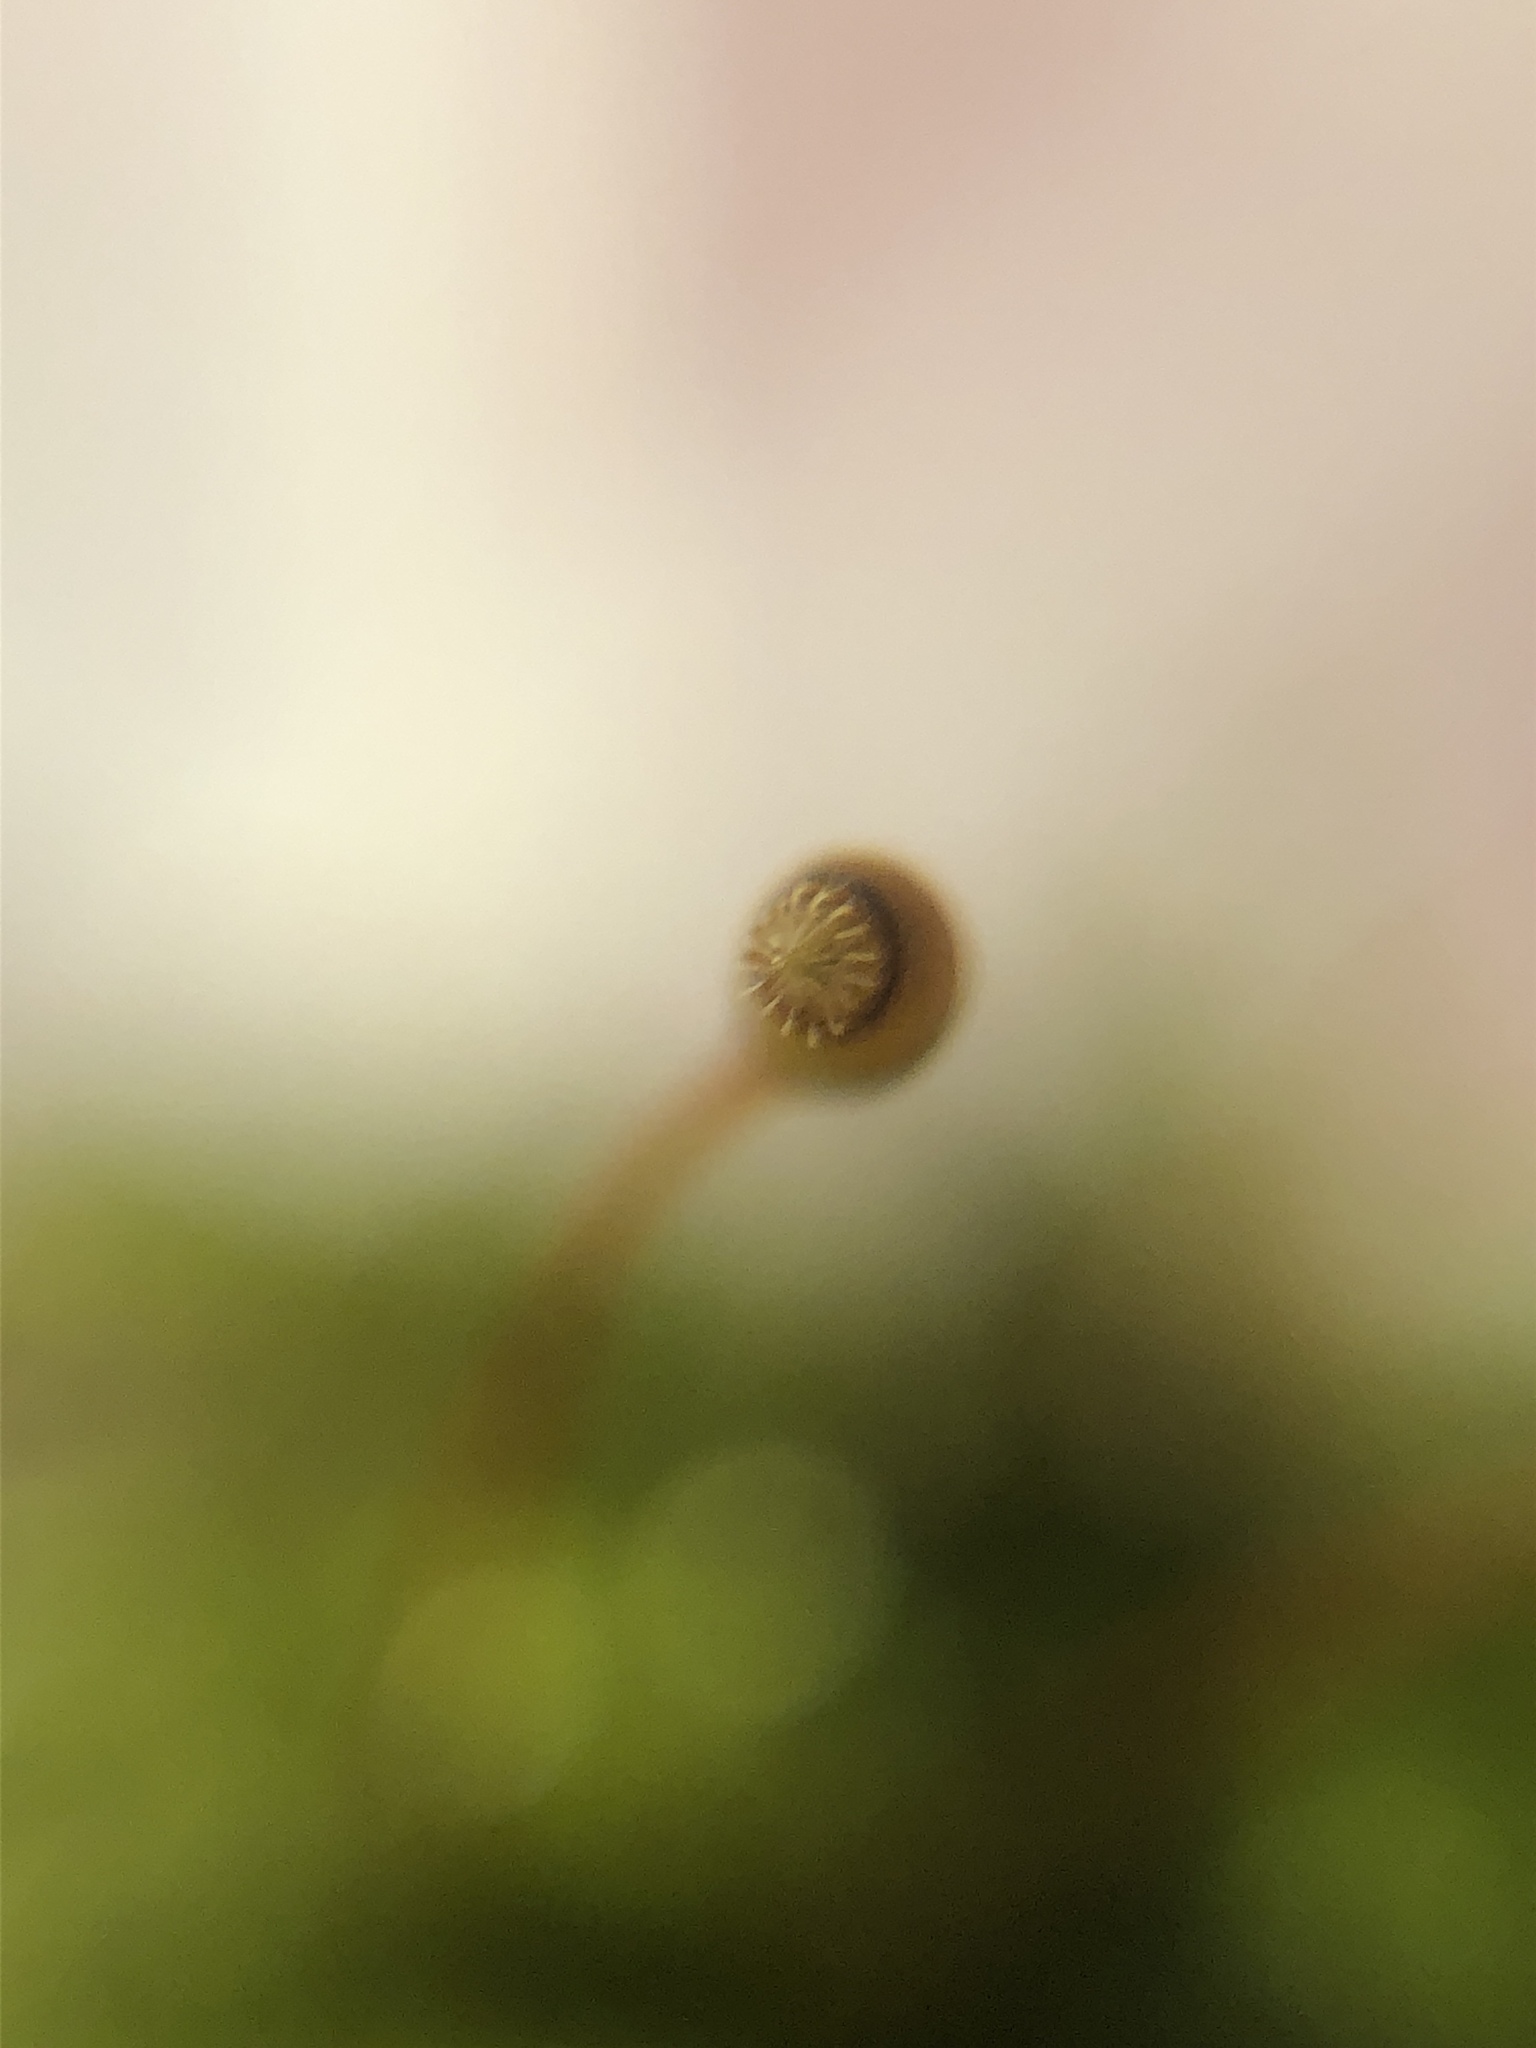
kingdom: Plantae
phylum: Bryophyta
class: Bryopsida
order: Hypnales
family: Brachytheciaceae
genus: Rhynchostegium
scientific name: Rhynchostegium confertum
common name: Clustered feather-moss
